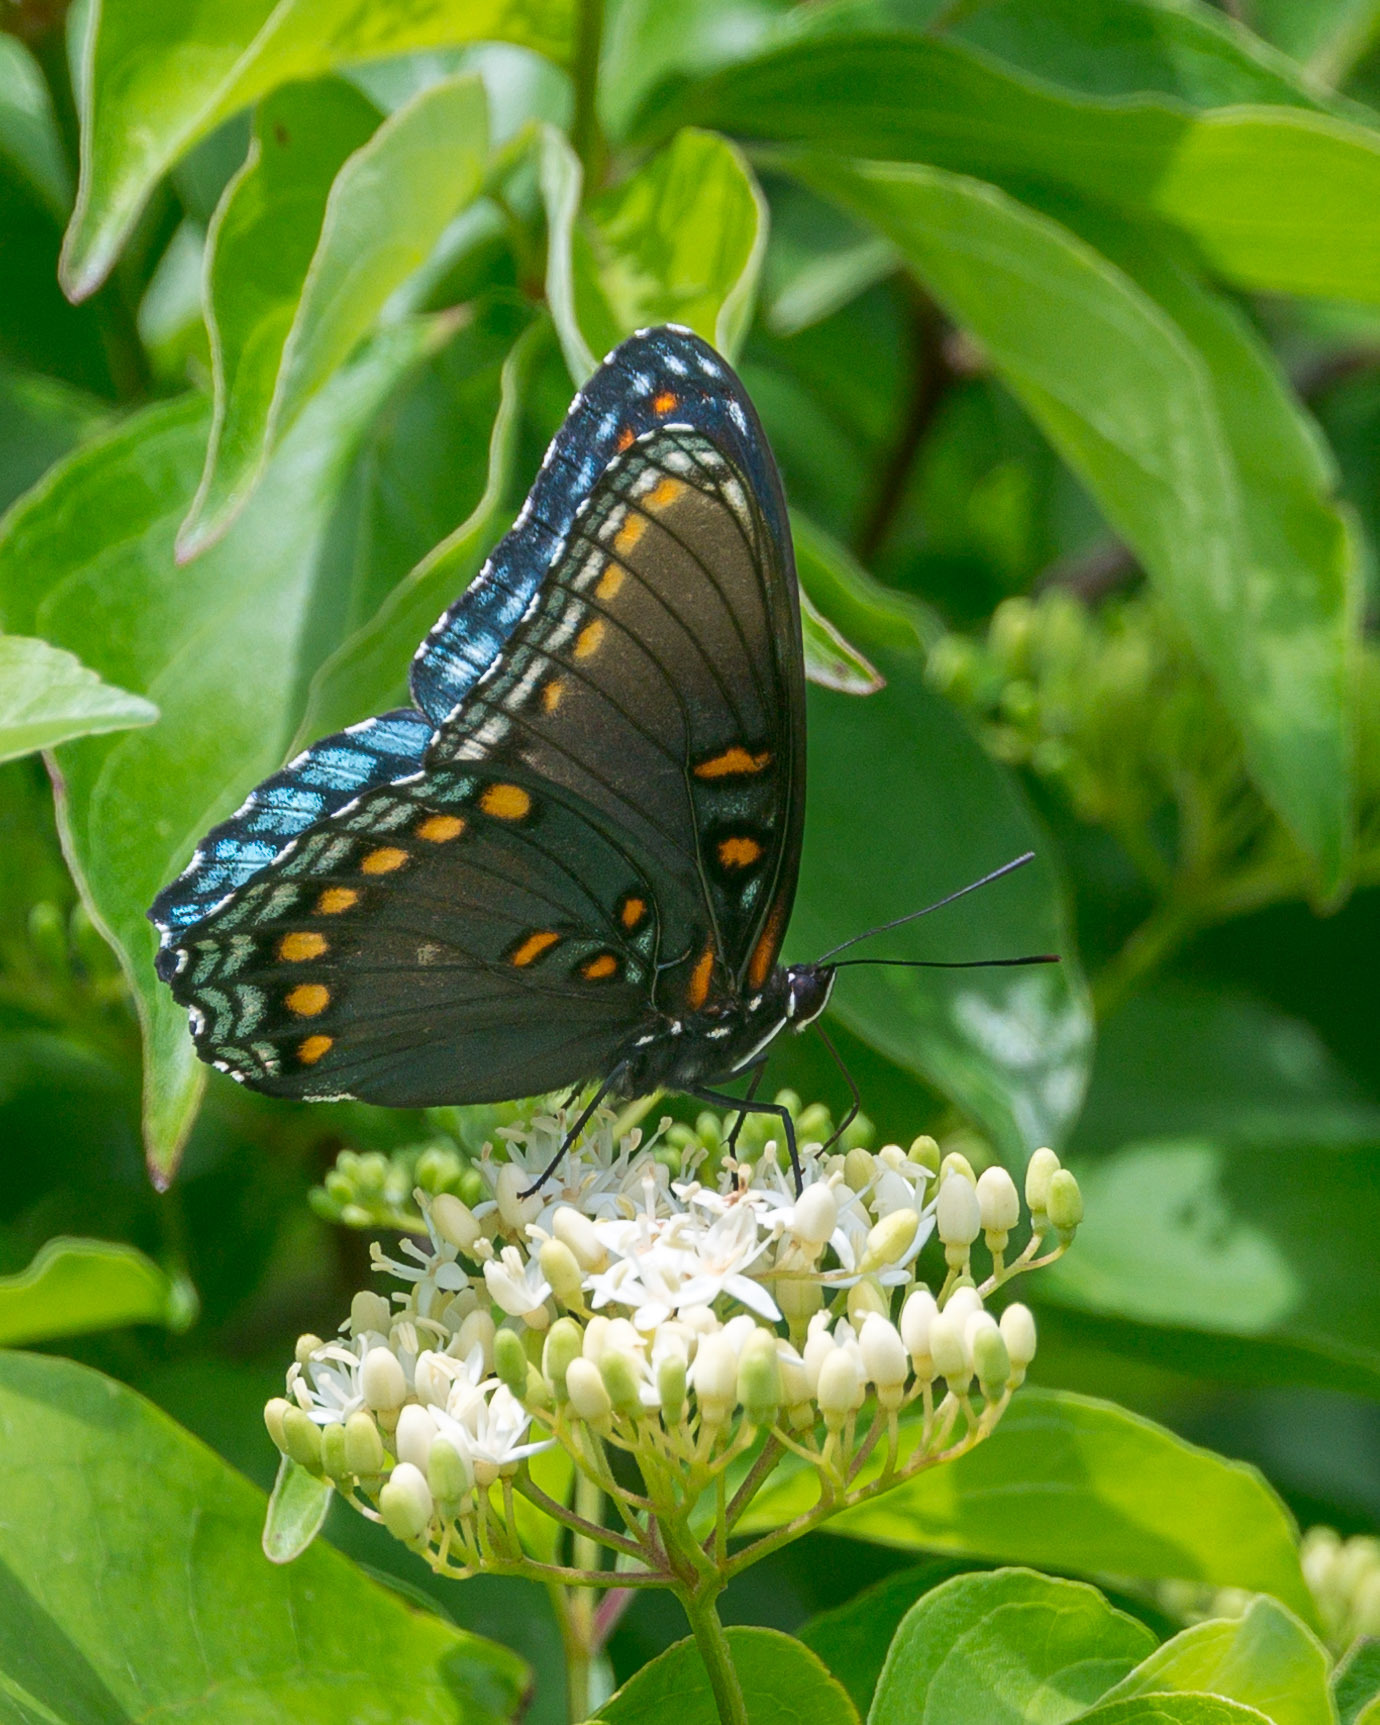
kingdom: Animalia
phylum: Arthropoda
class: Insecta
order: Lepidoptera
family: Nymphalidae
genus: Limenitis
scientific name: Limenitis arthemis
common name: Red-spotted admiral
